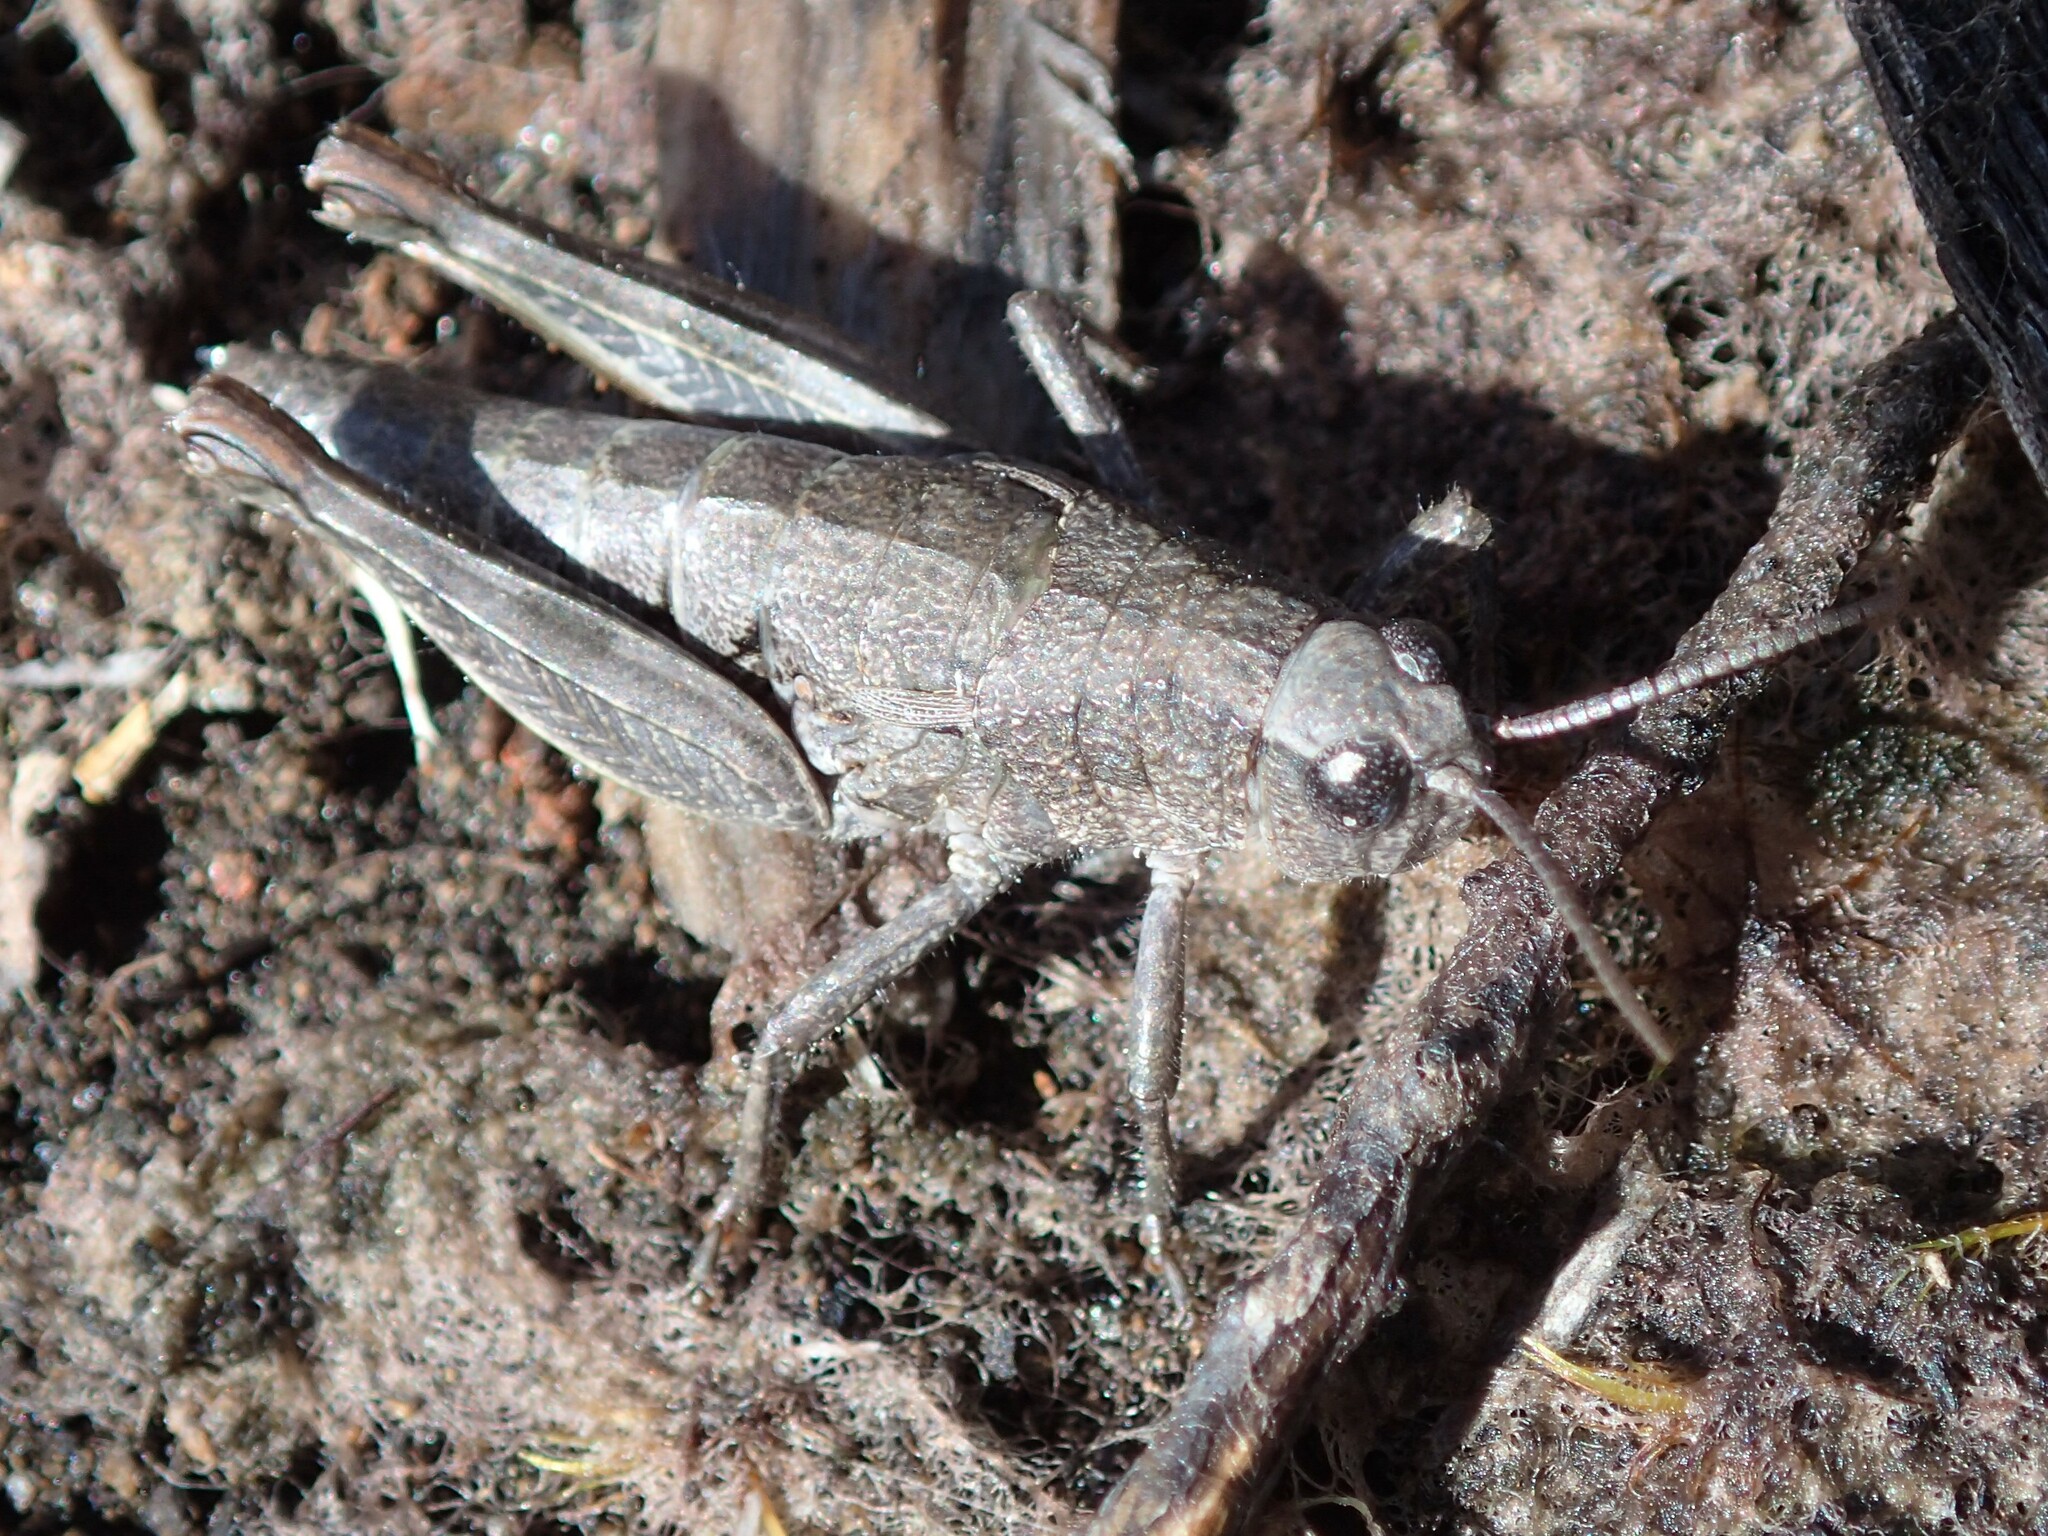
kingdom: Animalia
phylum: Arthropoda
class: Insecta
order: Orthoptera
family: Acrididae
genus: Tasmaniacris
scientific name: Tasmaniacris tasmaniensis
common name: Tasmanian grasshopper
